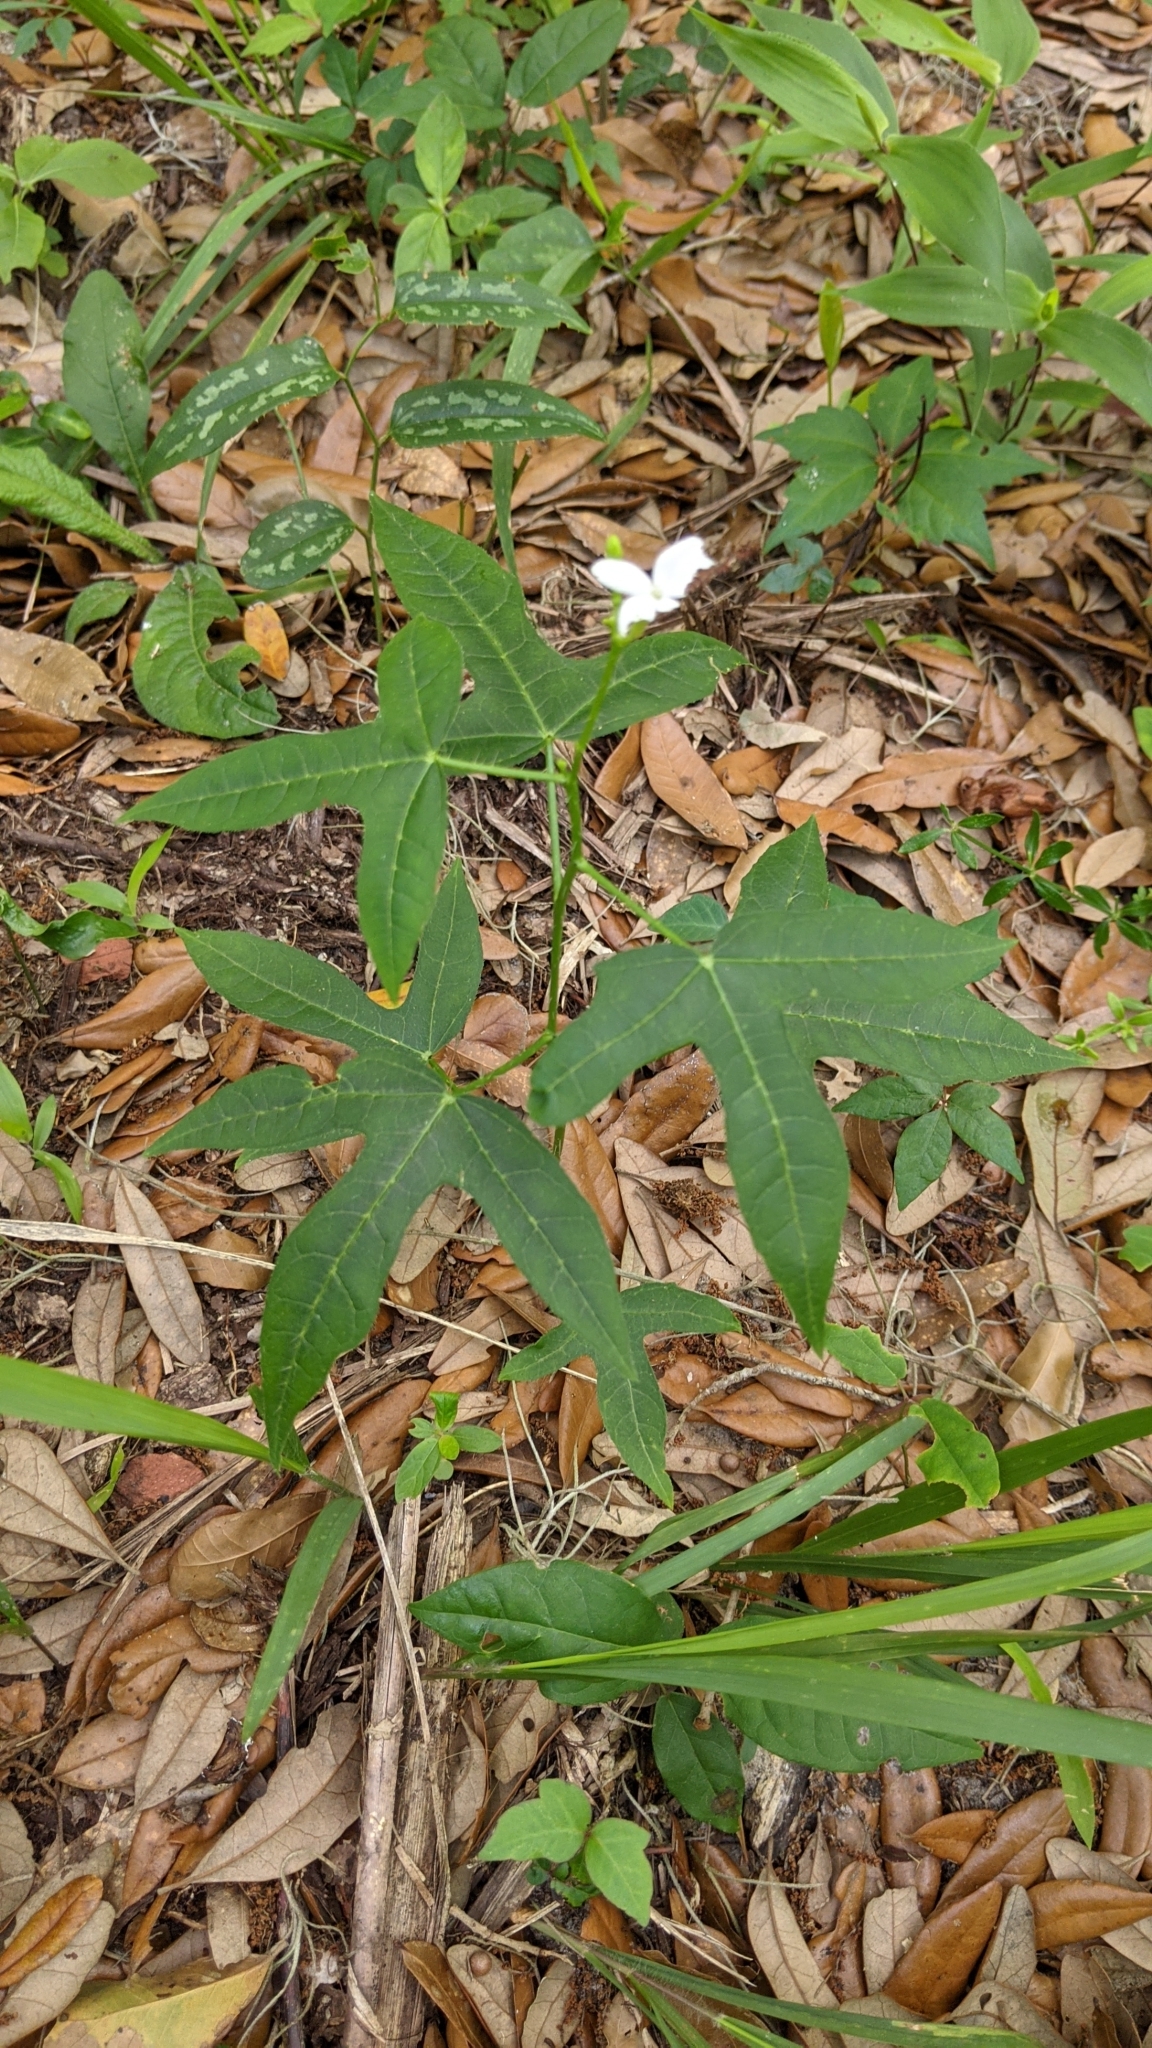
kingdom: Plantae
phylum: Tracheophyta
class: Magnoliopsida
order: Malpighiales
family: Euphorbiaceae
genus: Cnidoscolus
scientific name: Cnidoscolus stimulosus
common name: Bull-nettle
